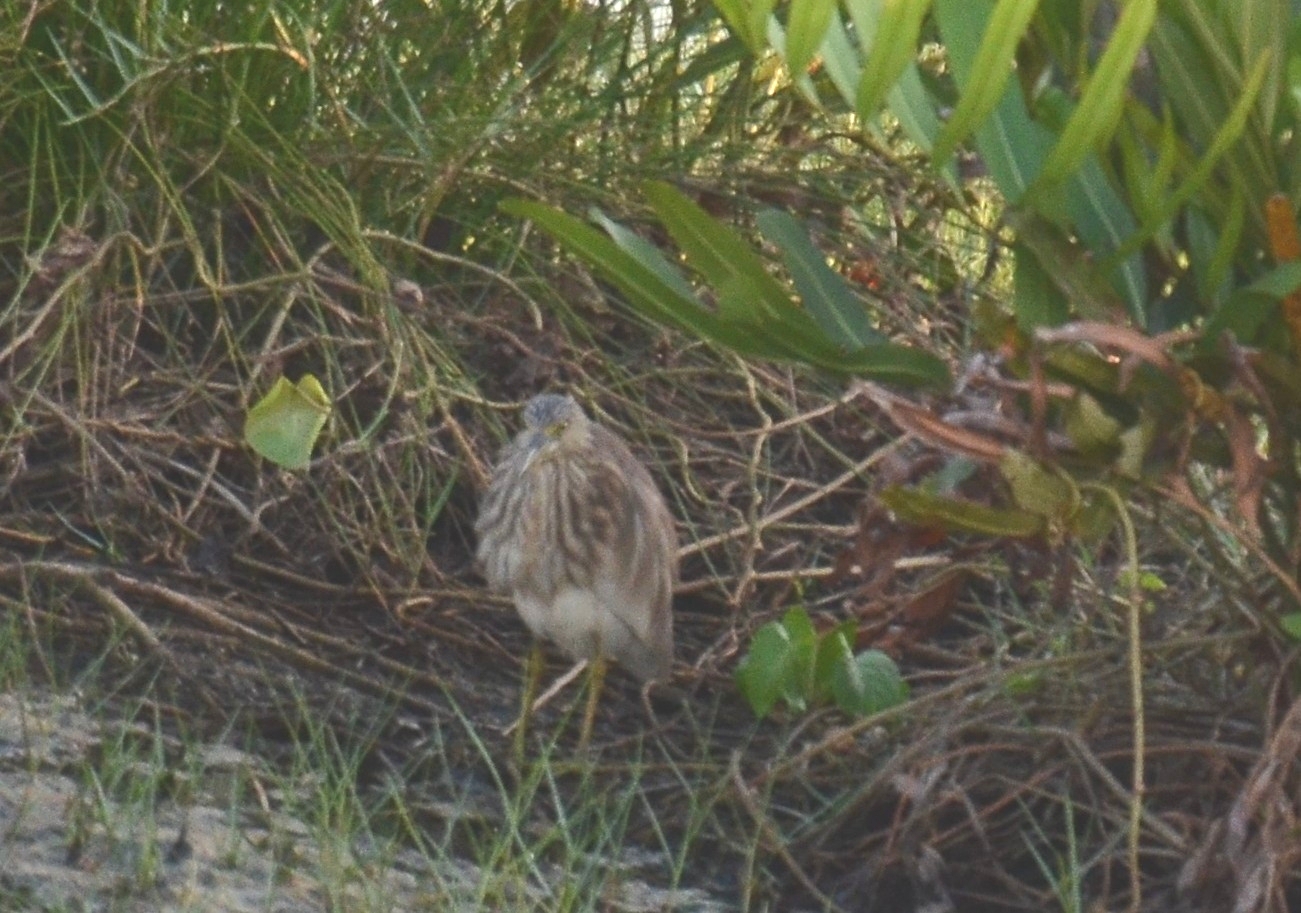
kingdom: Animalia
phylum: Chordata
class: Aves
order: Pelecaniformes
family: Ardeidae
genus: Ardeola
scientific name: Ardeola grayii
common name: Indian pond heron
